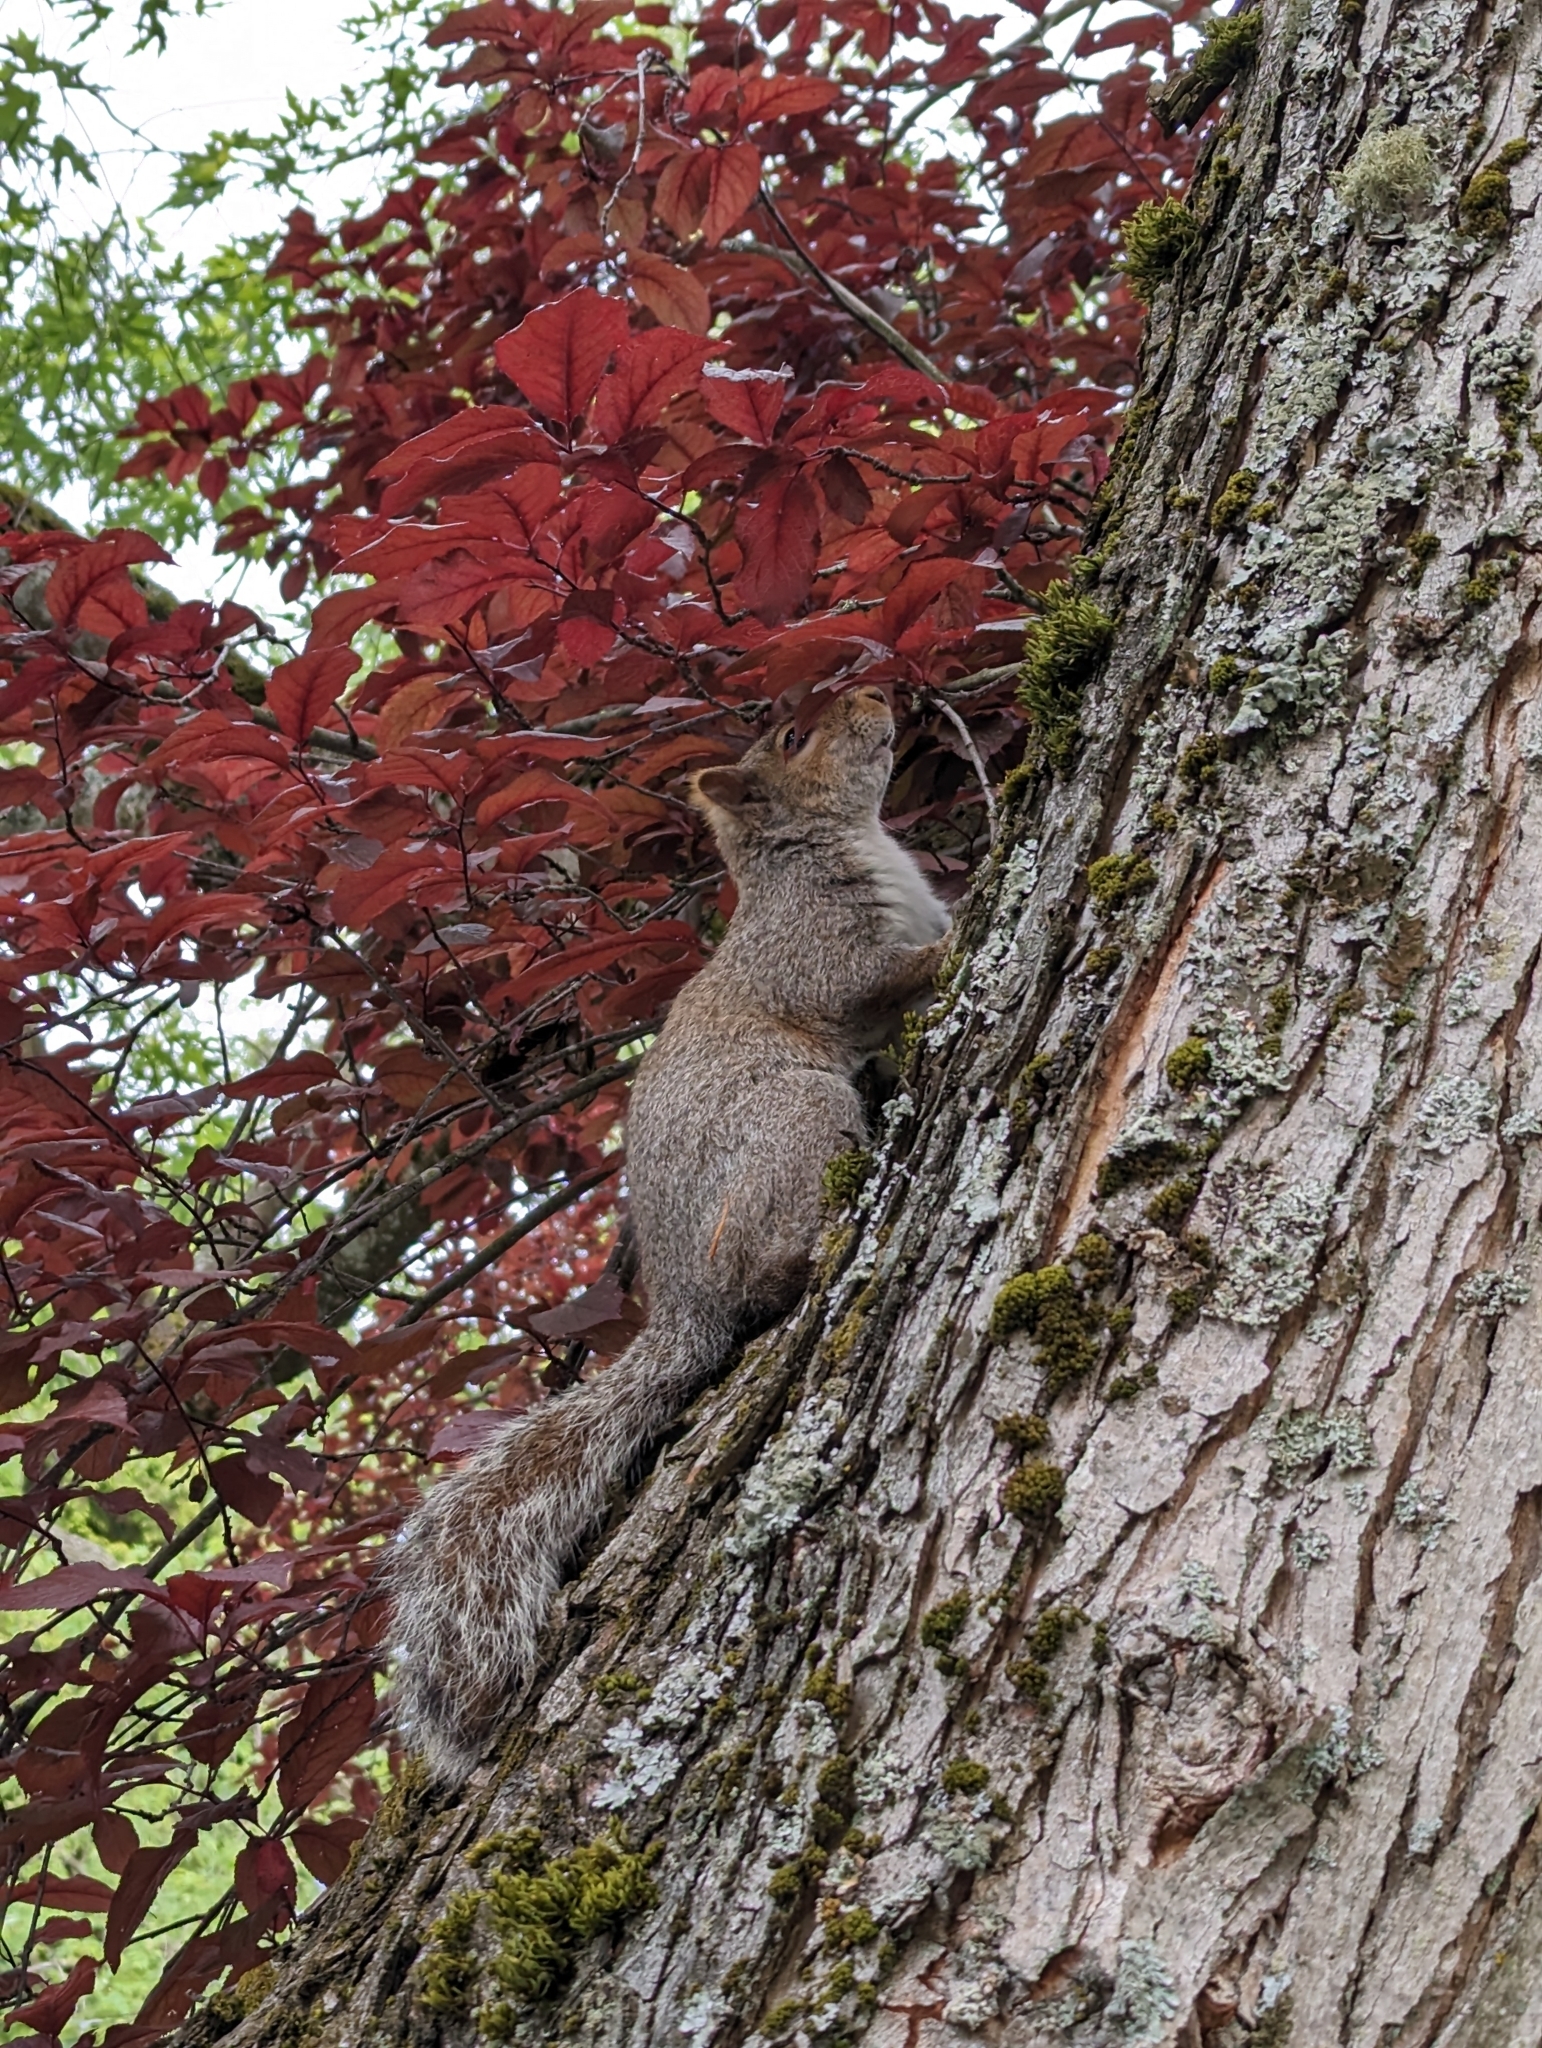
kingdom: Animalia
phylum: Chordata
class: Mammalia
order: Rodentia
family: Sciuridae
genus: Sciurus
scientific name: Sciurus carolinensis
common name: Eastern gray squirrel
